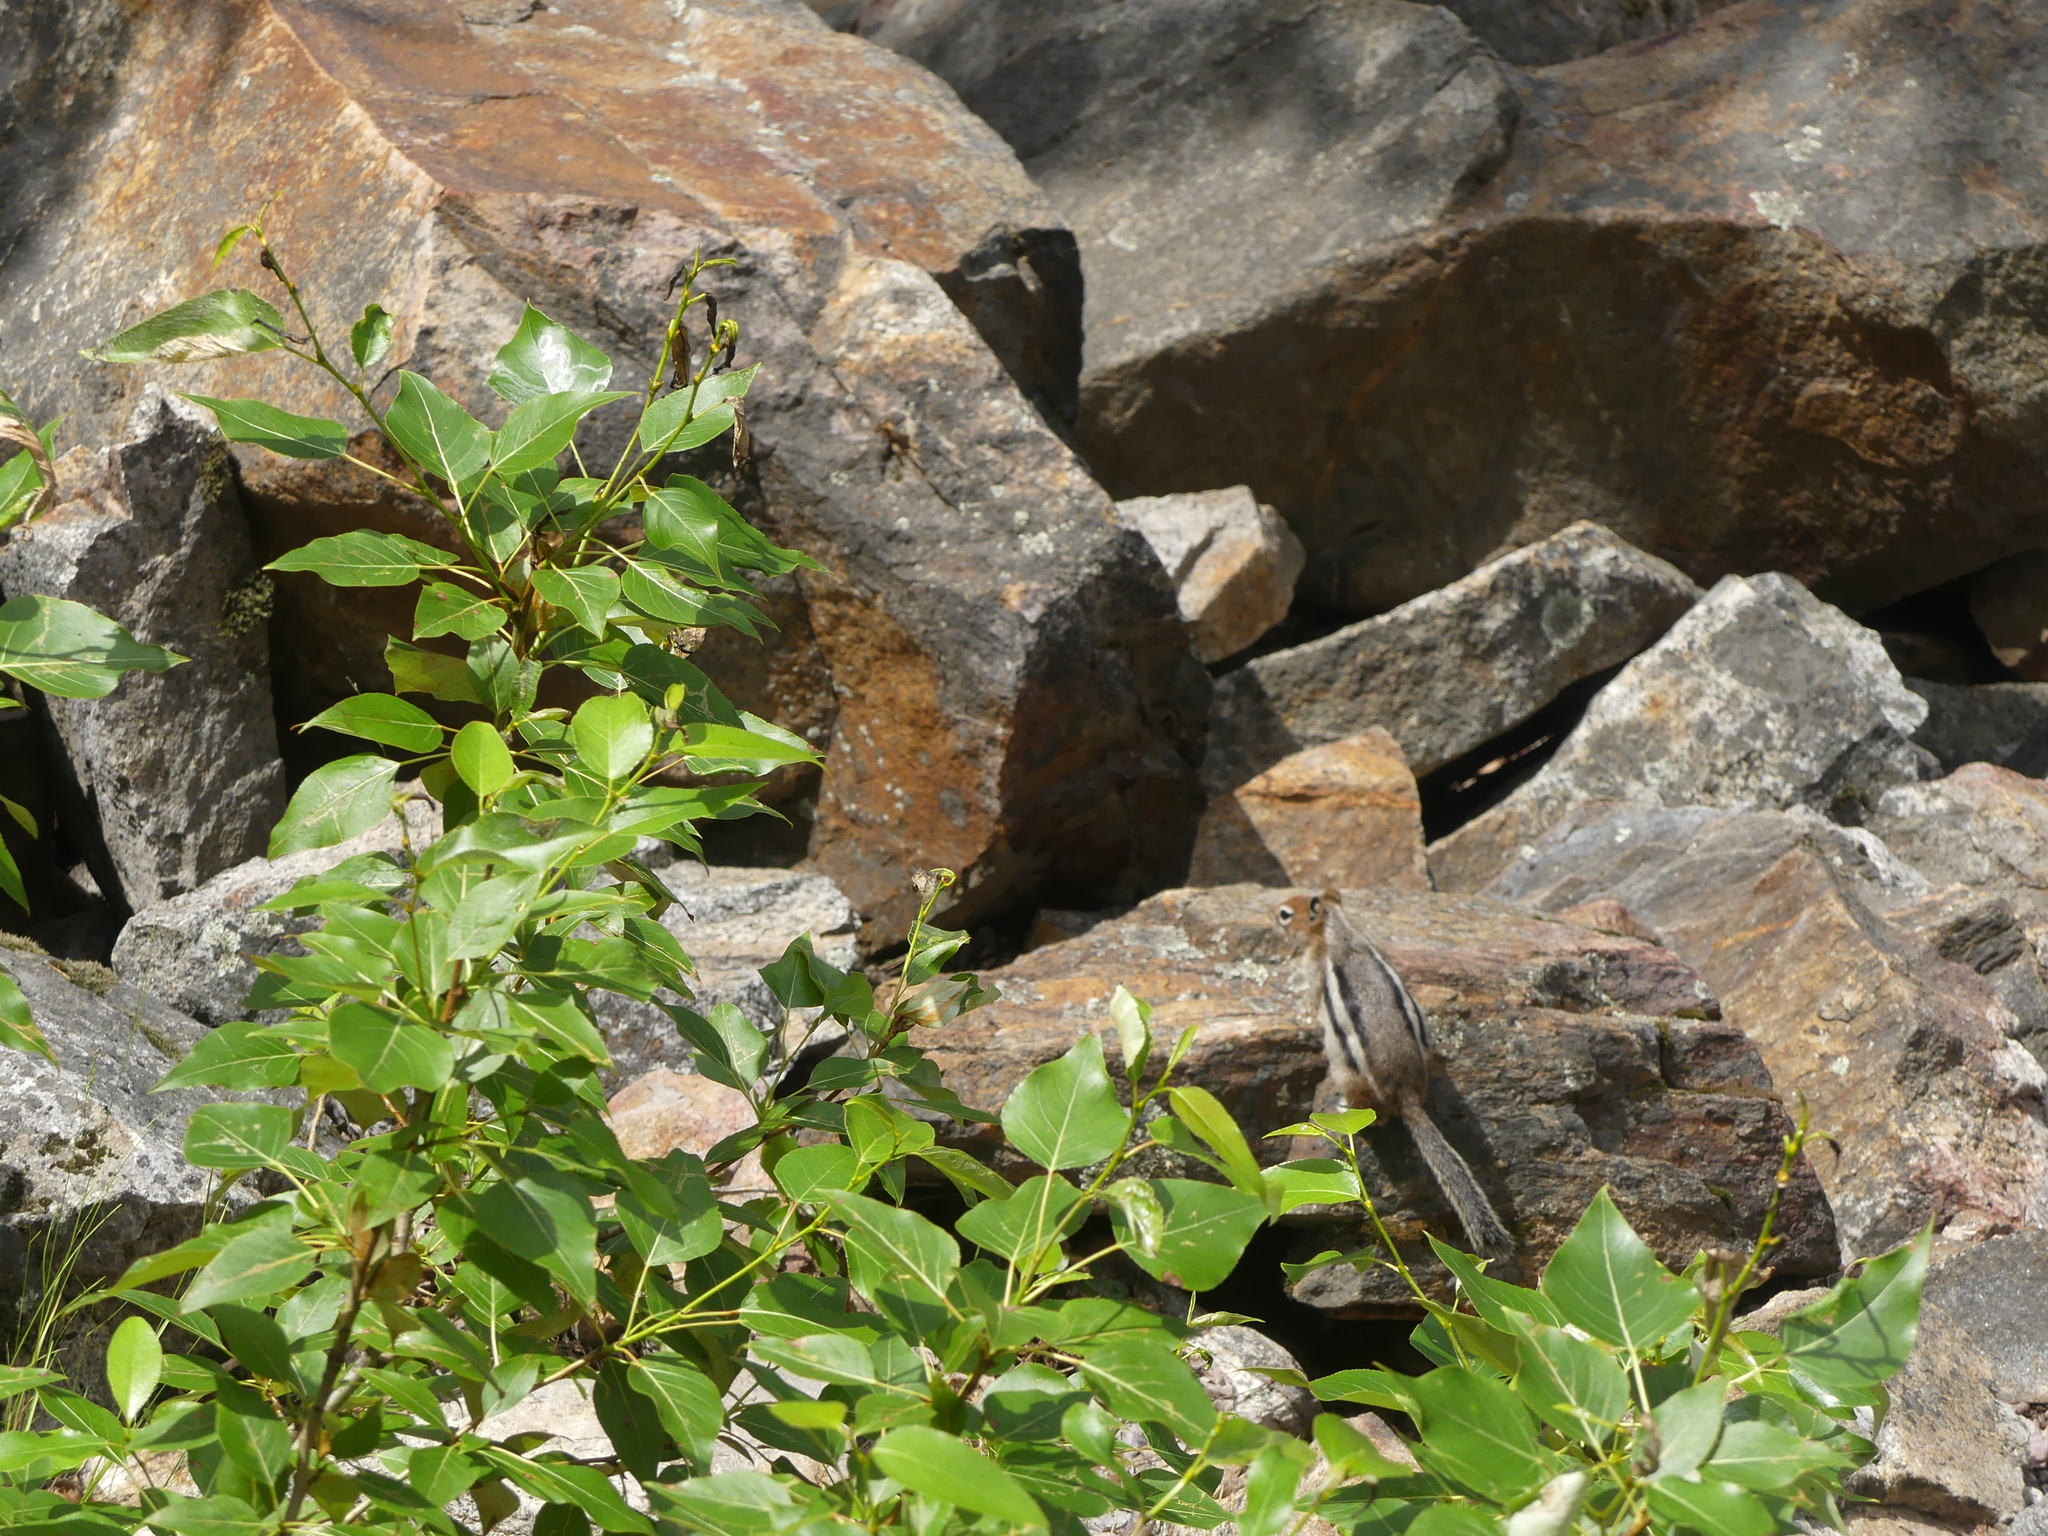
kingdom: Animalia
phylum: Chordata
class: Mammalia
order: Rodentia
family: Sciuridae
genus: Callospermophilus
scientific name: Callospermophilus lateralis
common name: Golden-mantled ground squirrel
